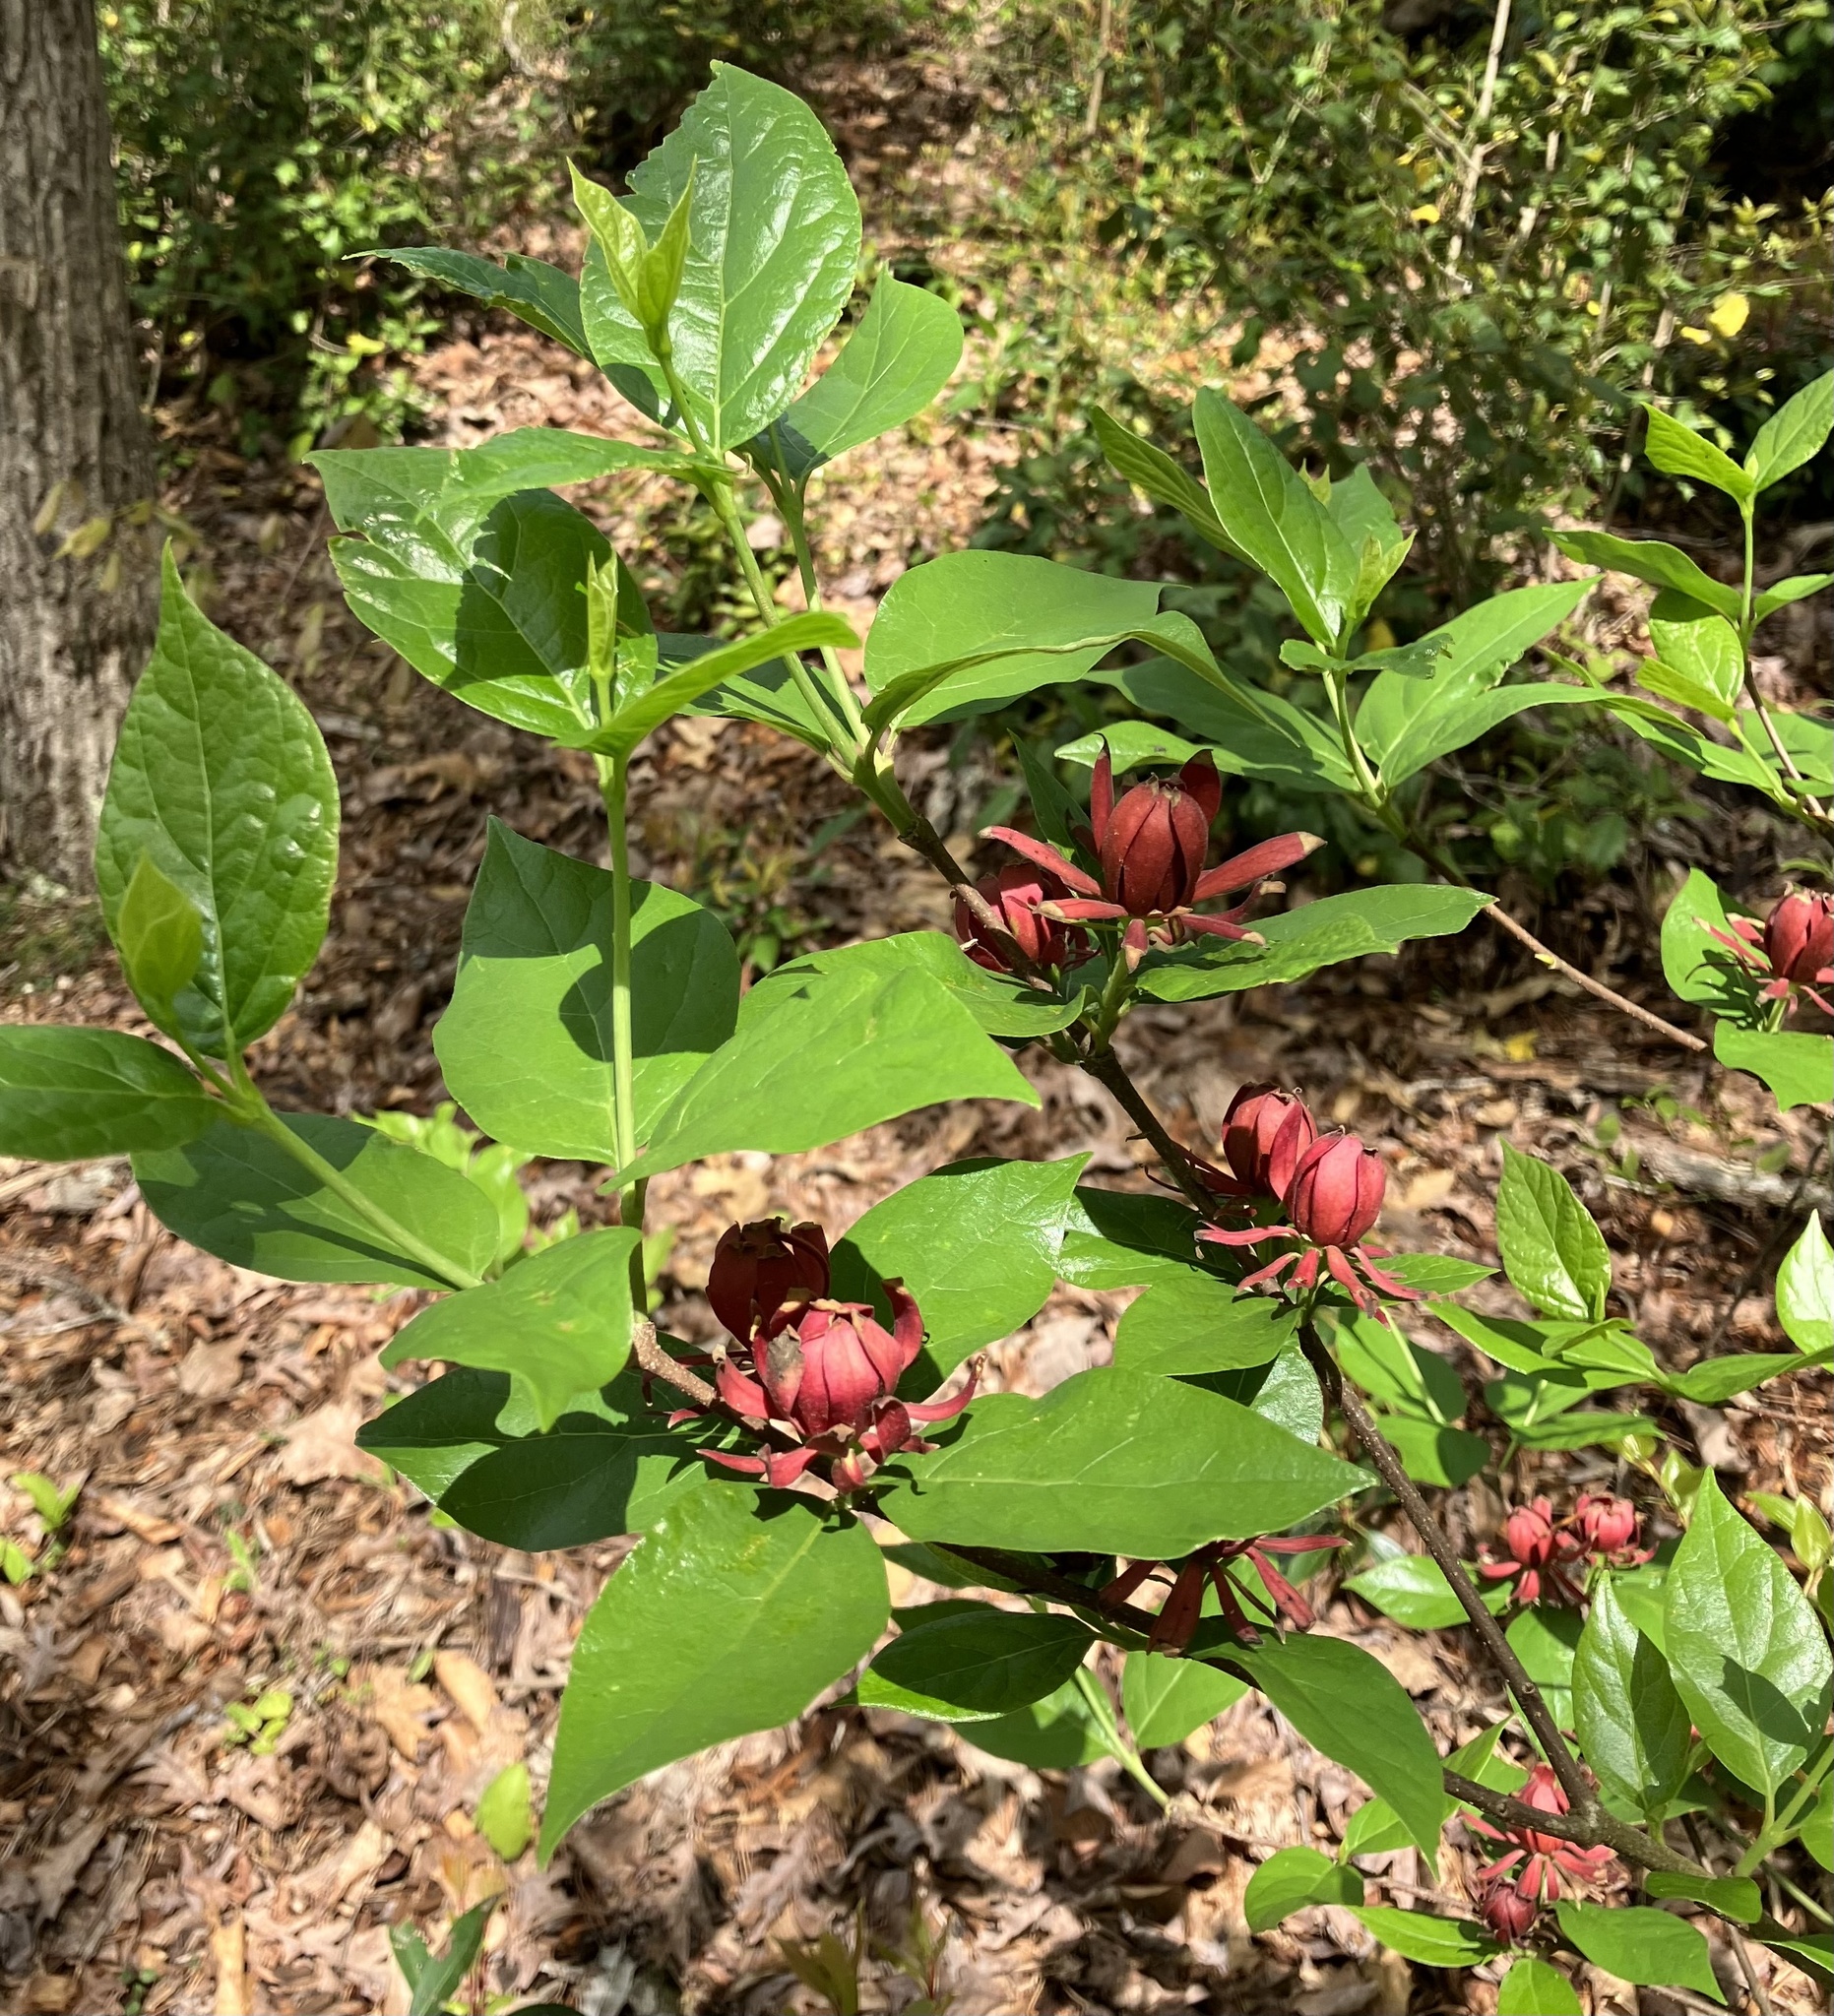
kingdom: Plantae
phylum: Tracheophyta
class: Magnoliopsida
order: Laurales
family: Calycanthaceae
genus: Calycanthus
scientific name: Calycanthus floridus
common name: Carolina-allspice
